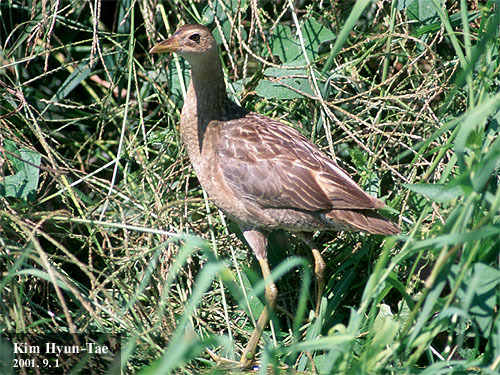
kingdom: Animalia
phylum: Chordata
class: Aves
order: Gruiformes
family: Rallidae
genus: Gallicrex
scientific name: Gallicrex cinerea
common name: Watercock
